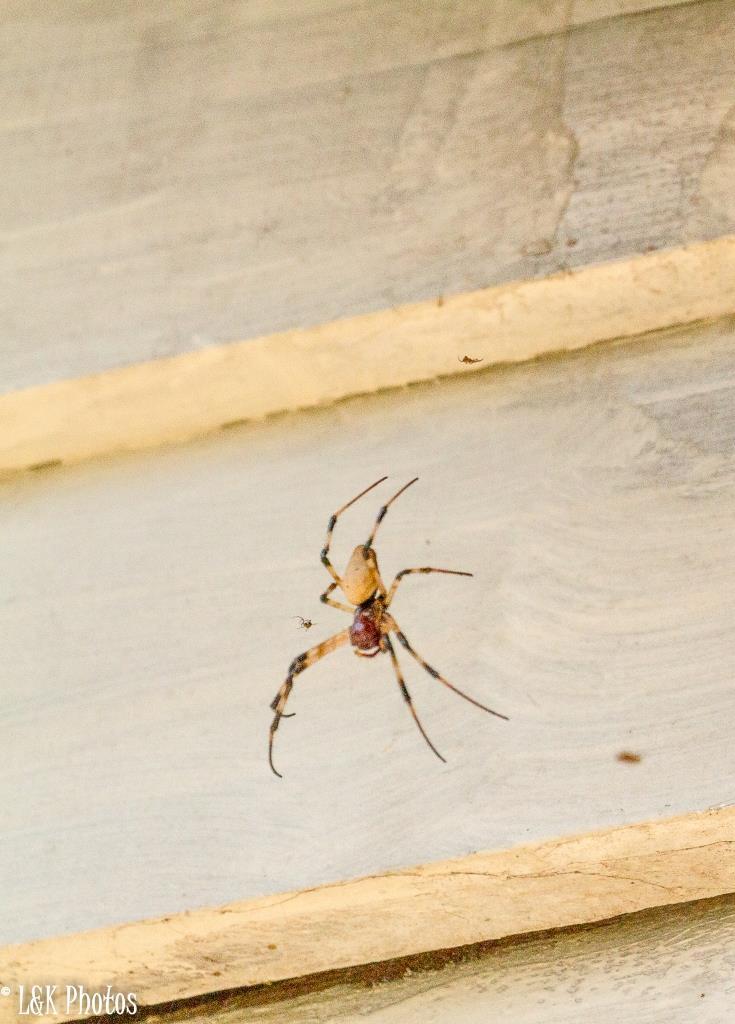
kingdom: Animalia
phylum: Arthropoda
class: Arachnida
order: Araneae
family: Araneidae
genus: Nephilingis
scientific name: Nephilingis livida
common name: Madagascar hermit spider
